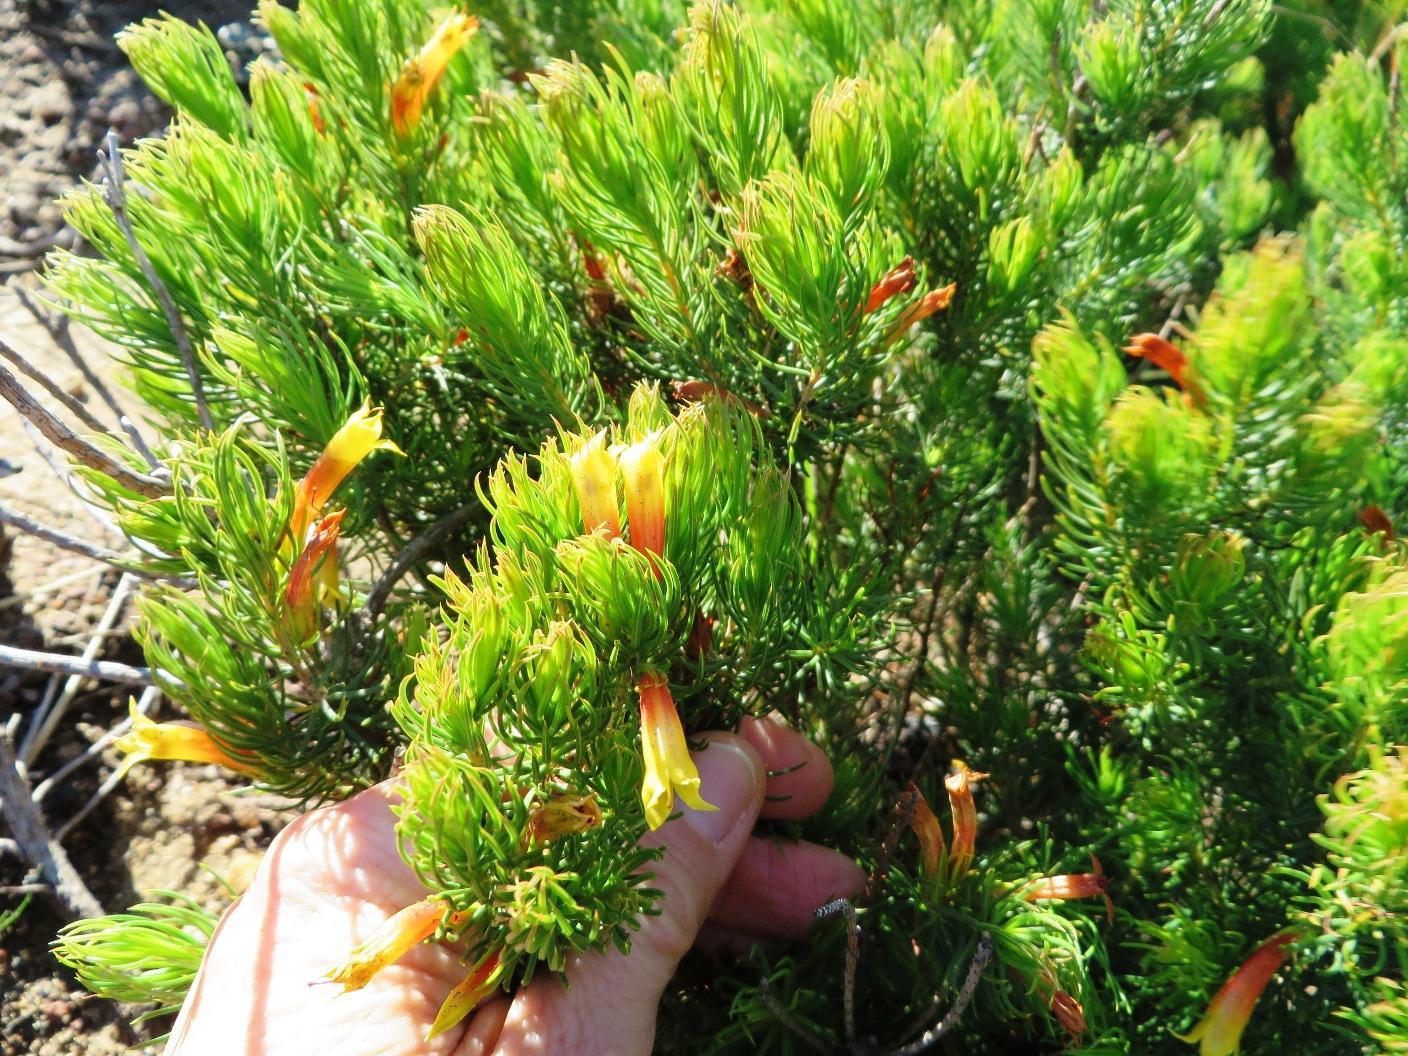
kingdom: Plantae
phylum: Tracheophyta
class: Magnoliopsida
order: Ericales
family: Ericaceae
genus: Erica
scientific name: Erica grandiflora
